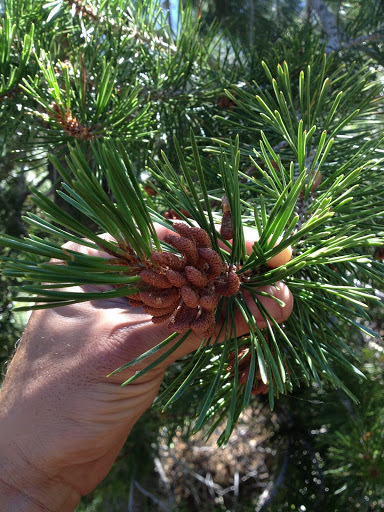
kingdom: Plantae
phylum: Tracheophyta
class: Pinopsida
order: Pinales
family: Pinaceae
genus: Pinus
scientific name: Pinus contorta
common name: Lodgepole pine
